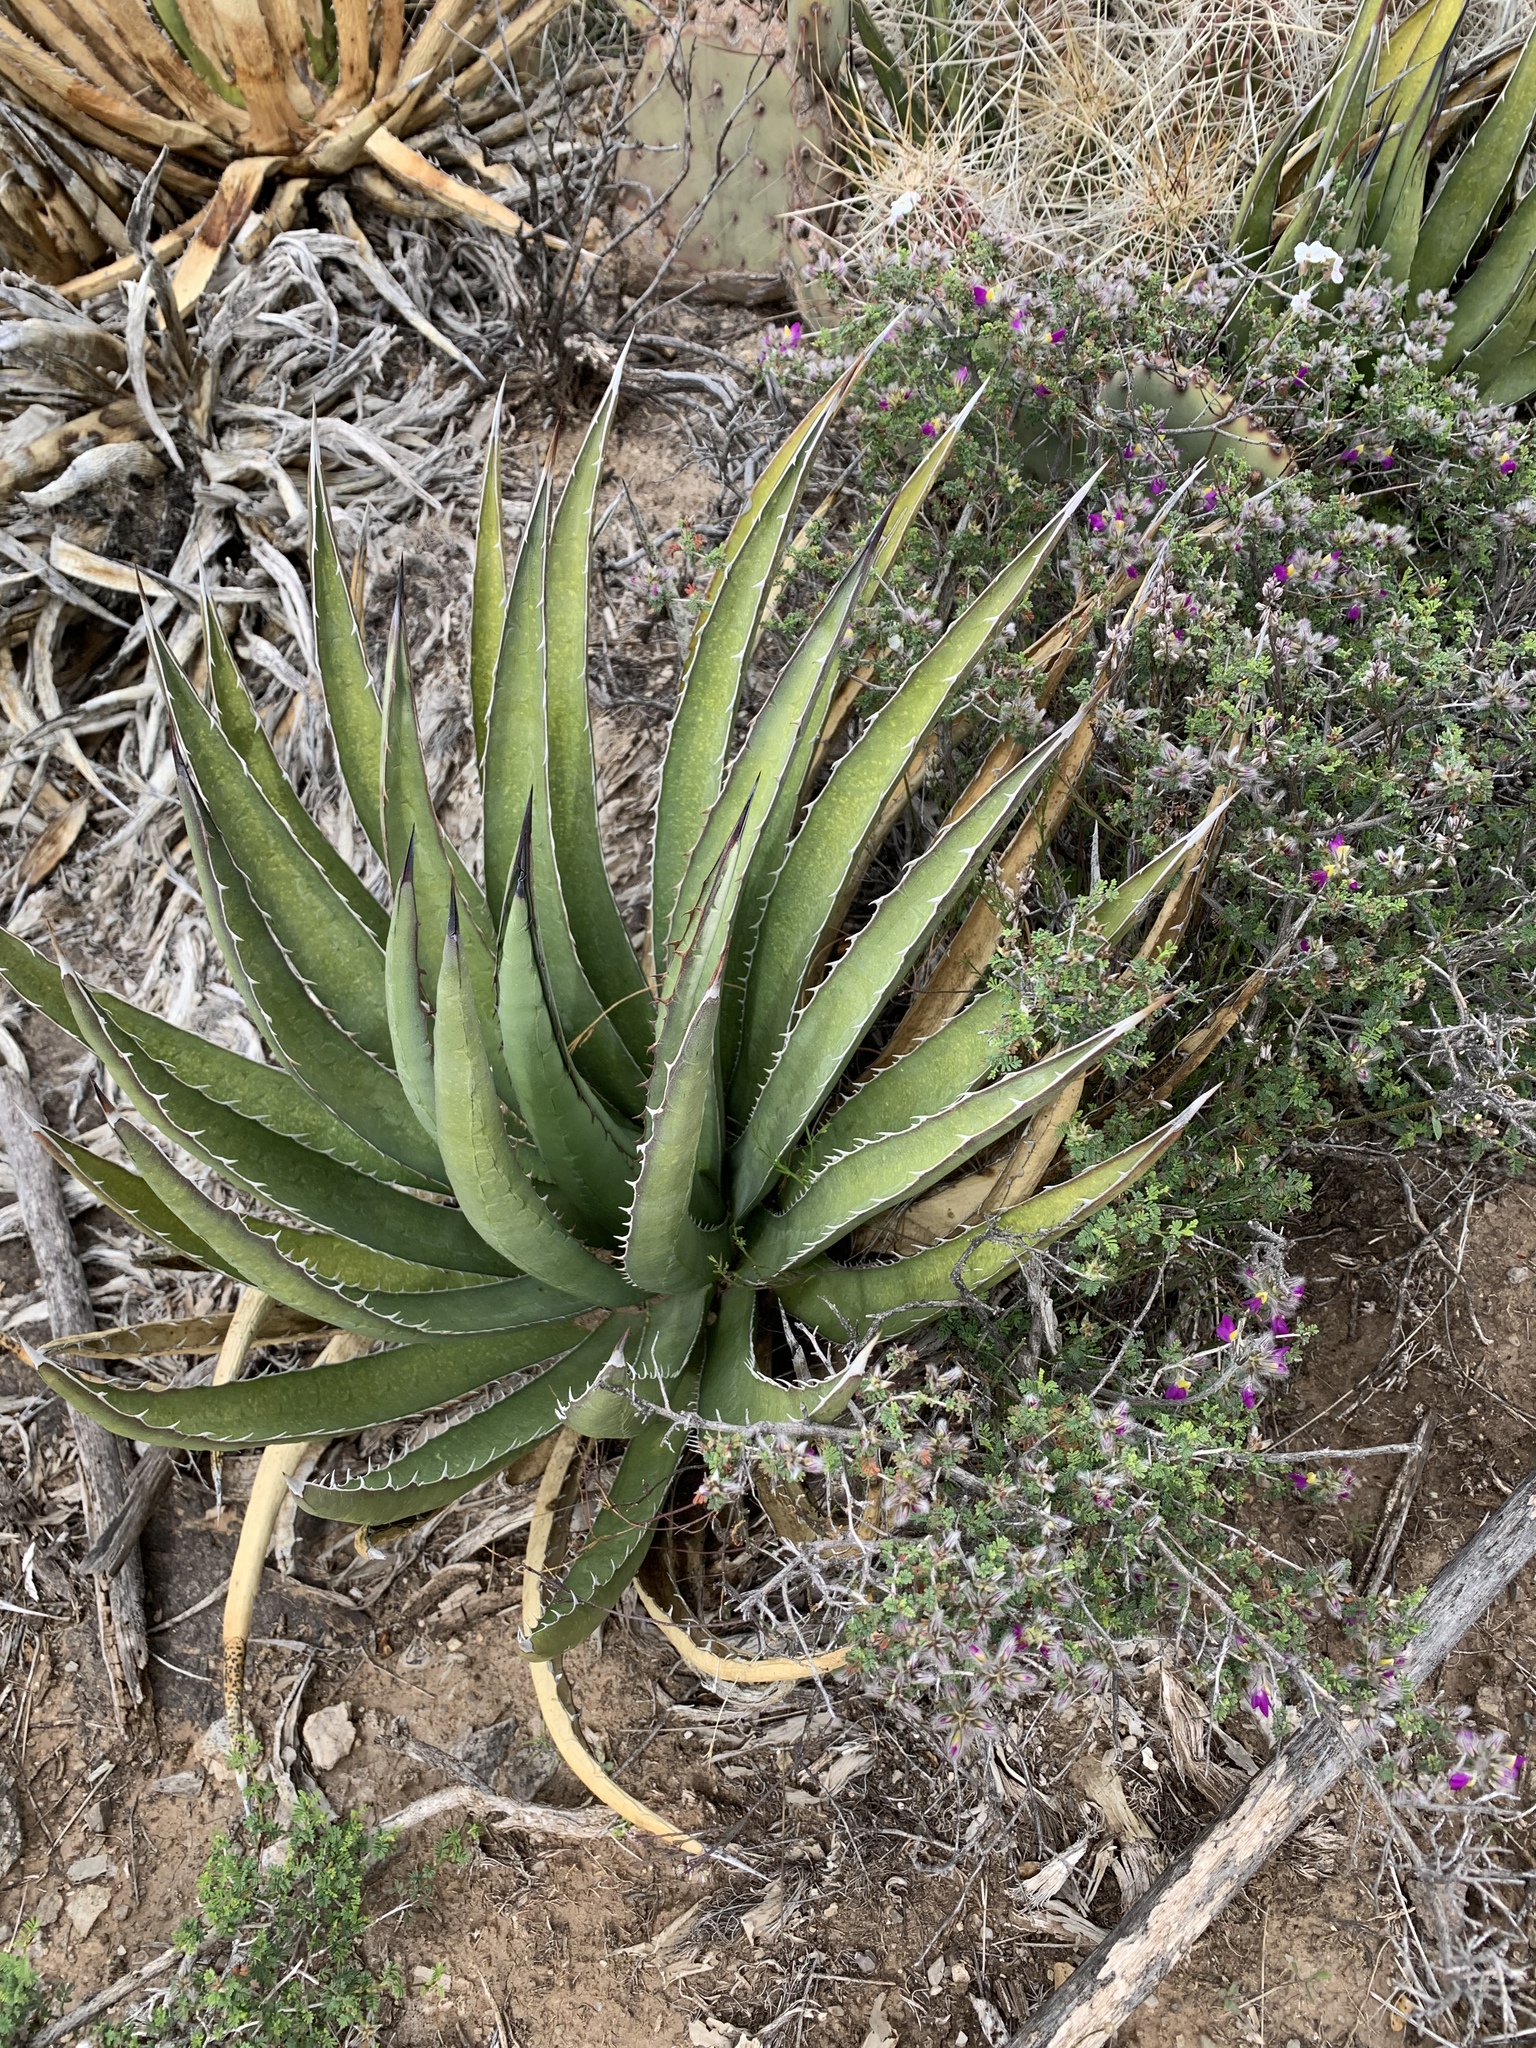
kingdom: Plantae
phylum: Tracheophyta
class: Liliopsida
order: Asparagales
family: Asparagaceae
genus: Agave
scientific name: Agave lechuguilla
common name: Lecheguilla agave
